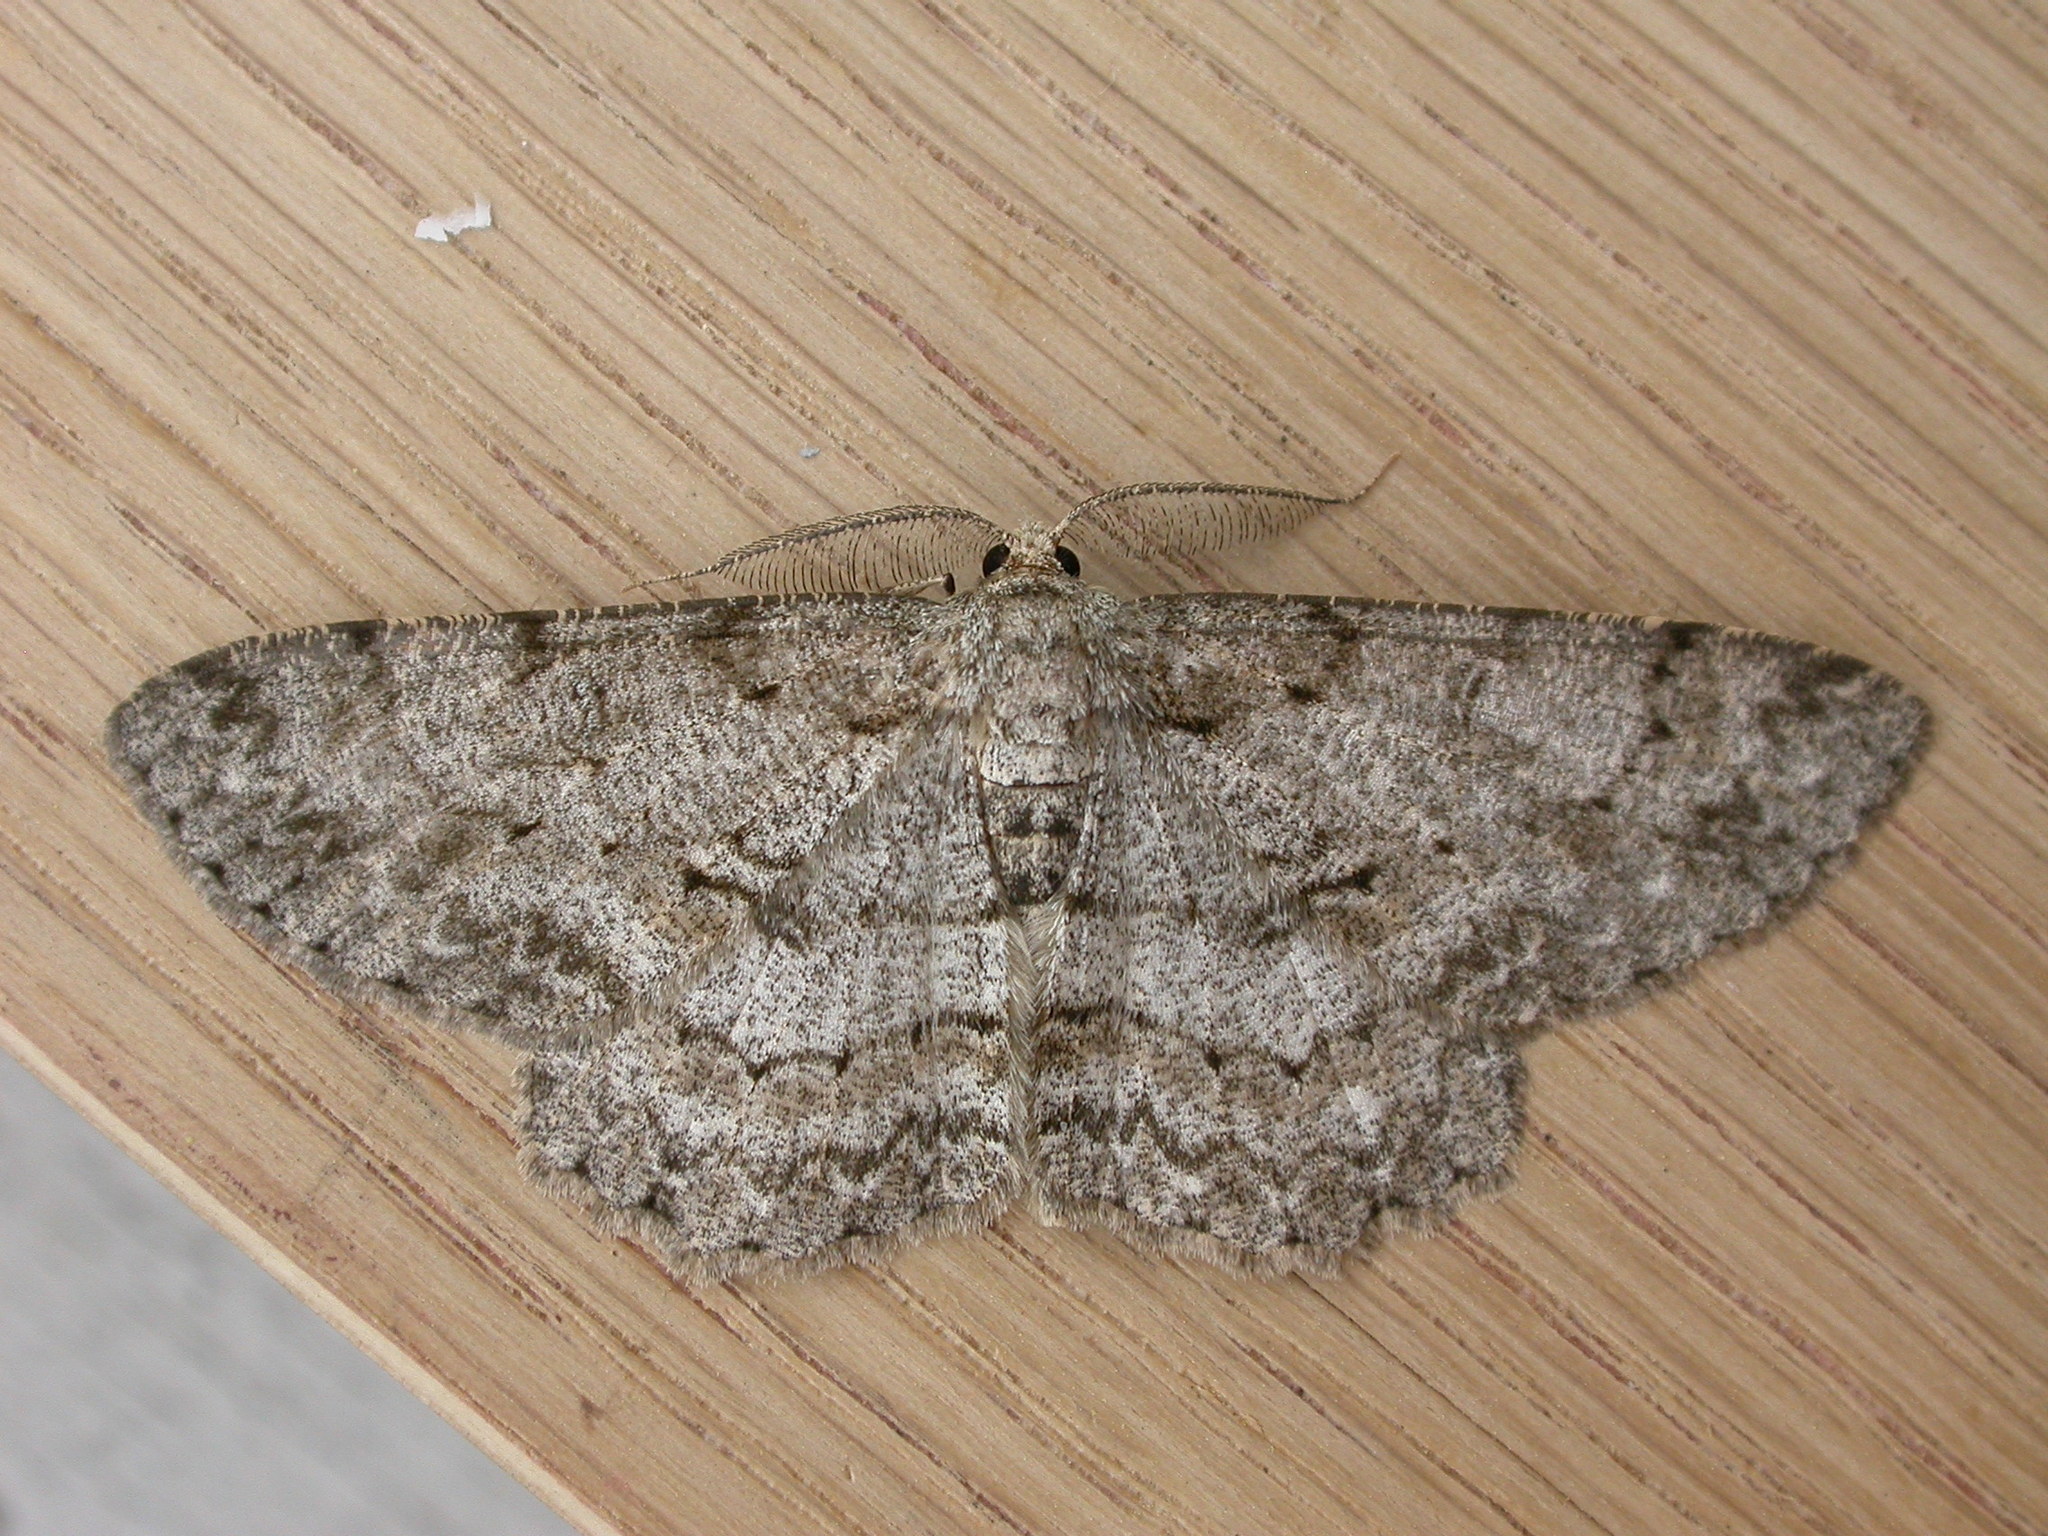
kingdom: Animalia
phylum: Arthropoda
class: Insecta
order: Lepidoptera
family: Geometridae
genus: Hypomecis
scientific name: Hypomecis punctinalis
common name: Pale oak beauty
